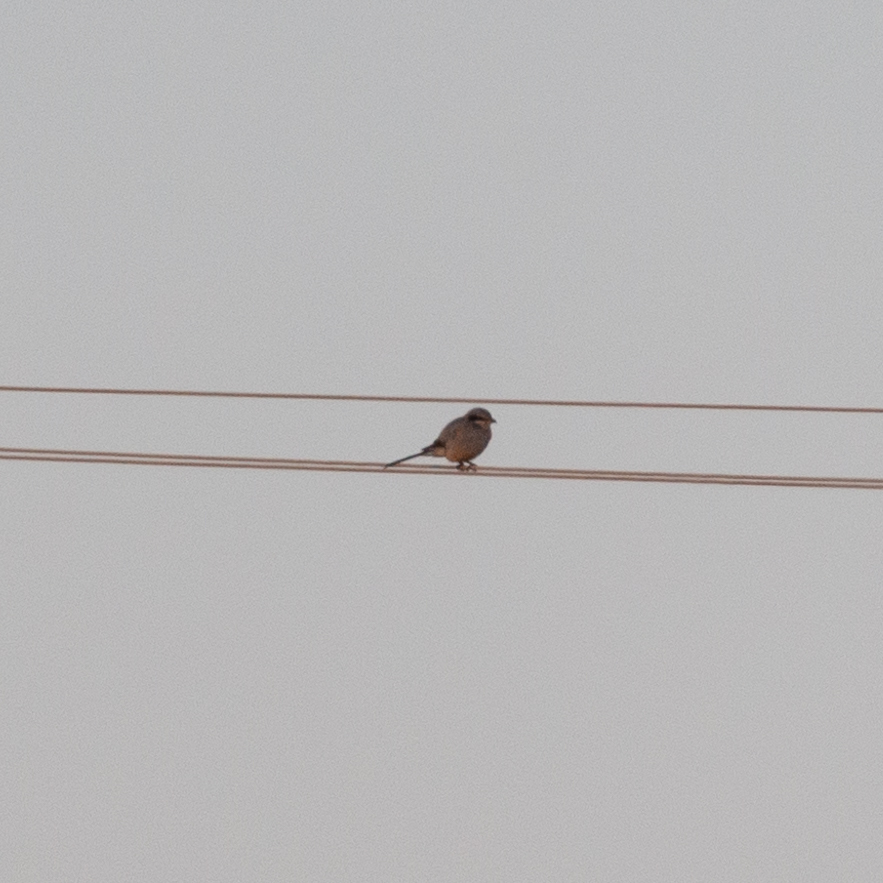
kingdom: Animalia
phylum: Chordata
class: Aves
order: Passeriformes
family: Laniidae
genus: Lanius
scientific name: Lanius meridionalis
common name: Iberian grey shrike
